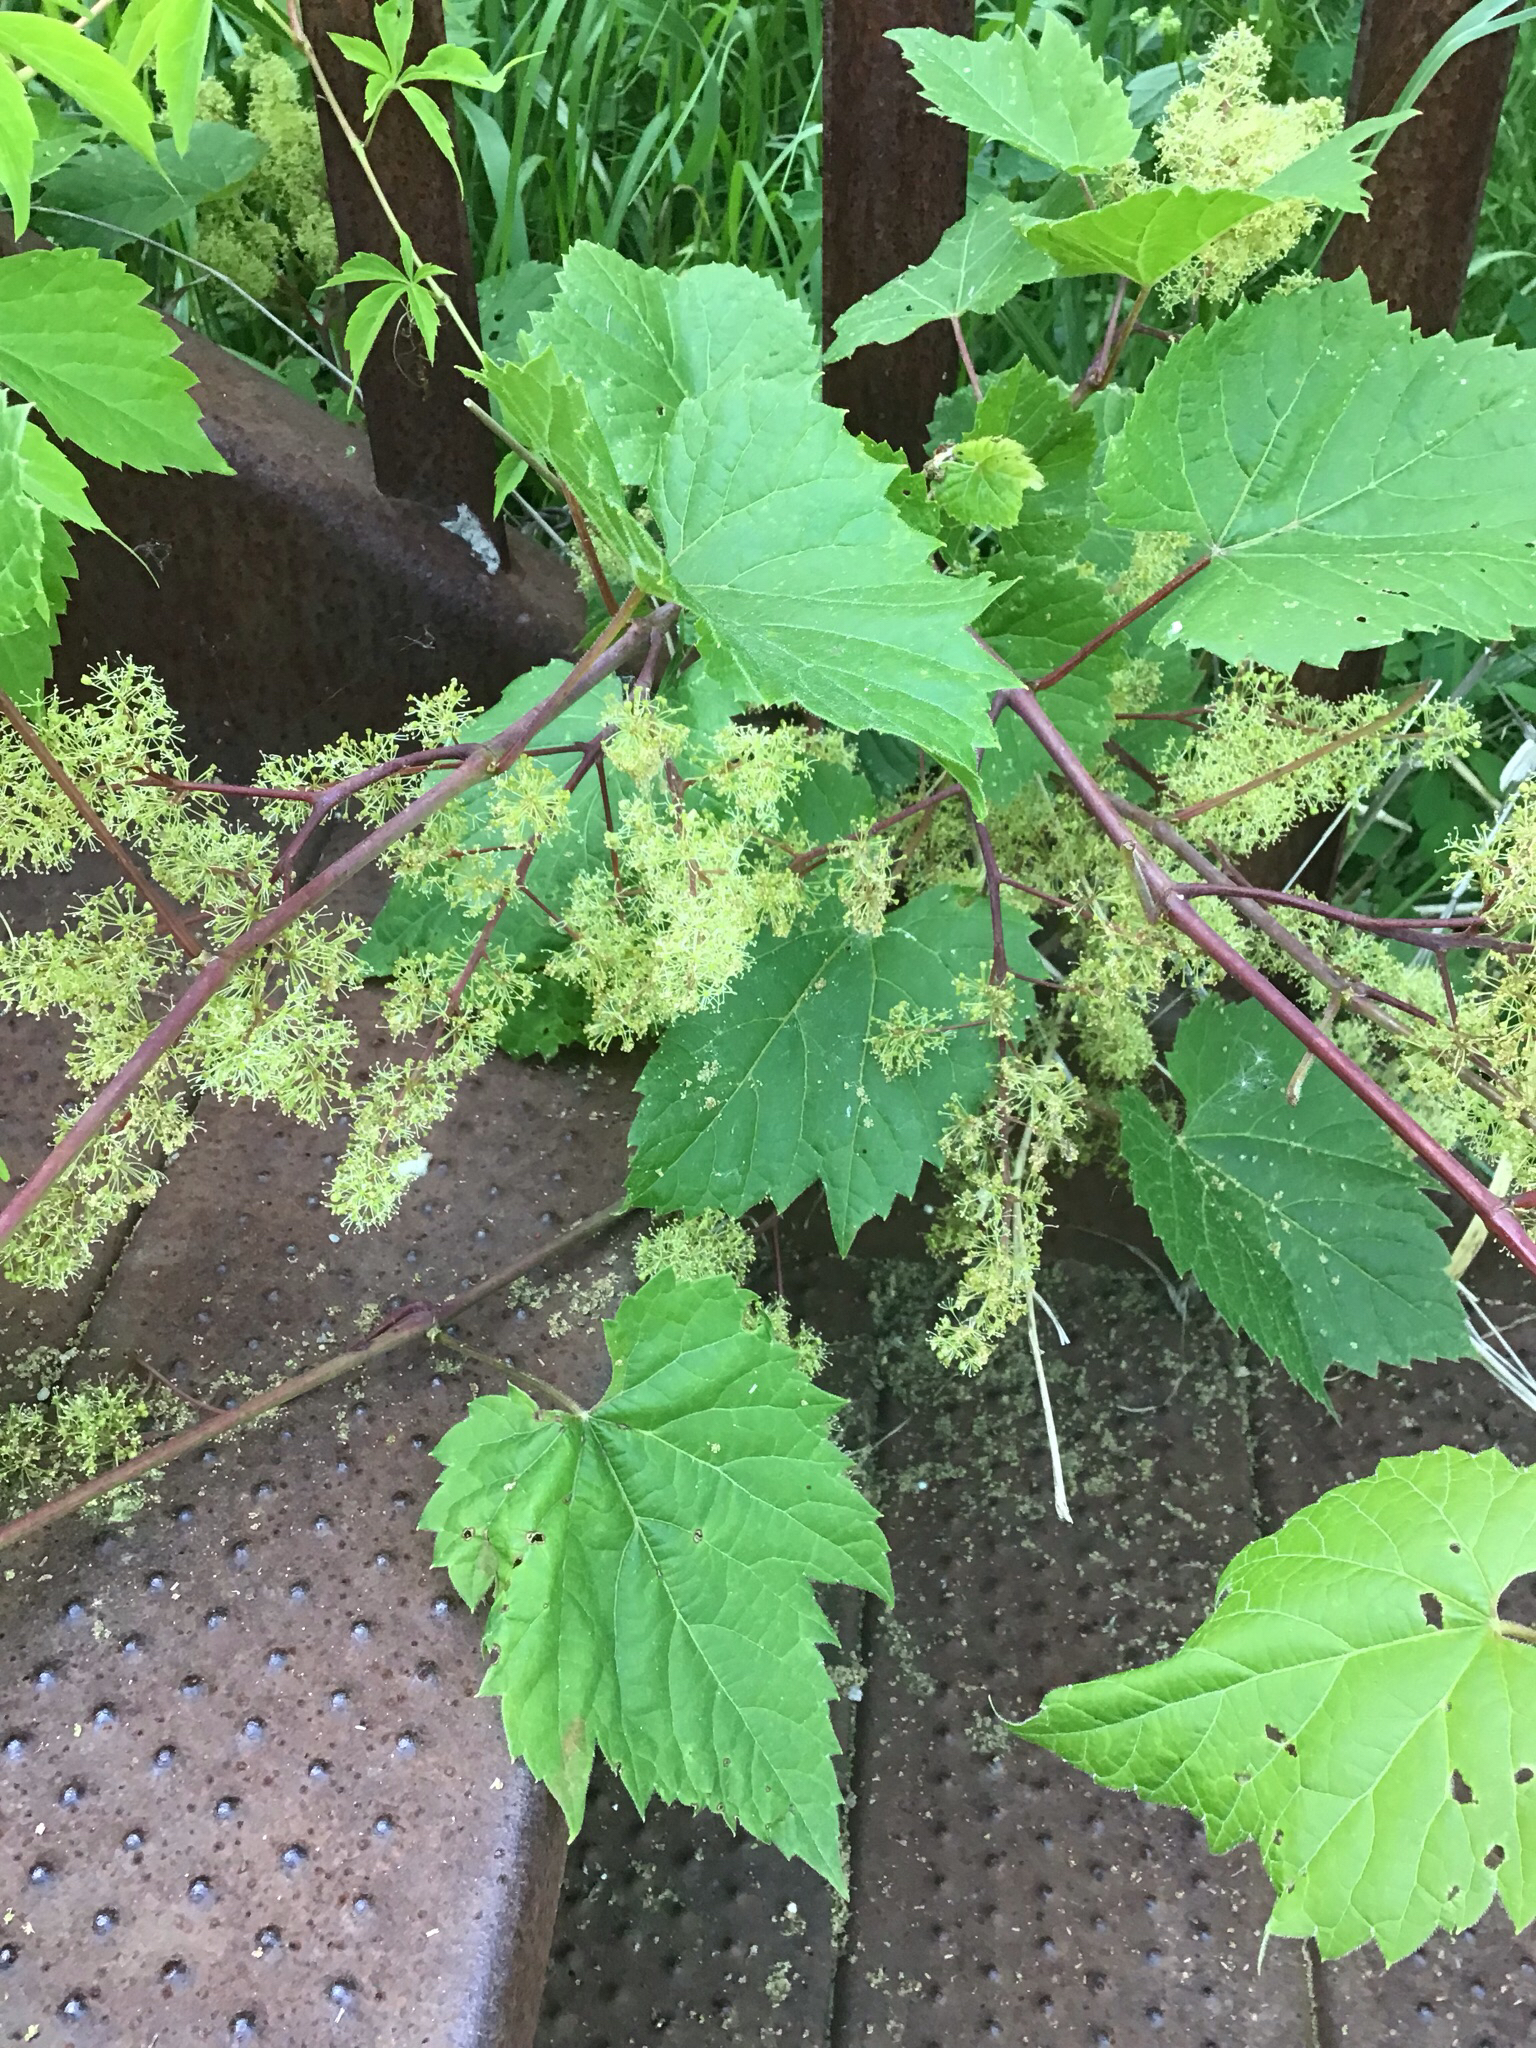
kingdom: Plantae
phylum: Tracheophyta
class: Magnoliopsida
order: Vitales
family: Vitaceae
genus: Vitis
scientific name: Vitis riparia
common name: Frost grape
